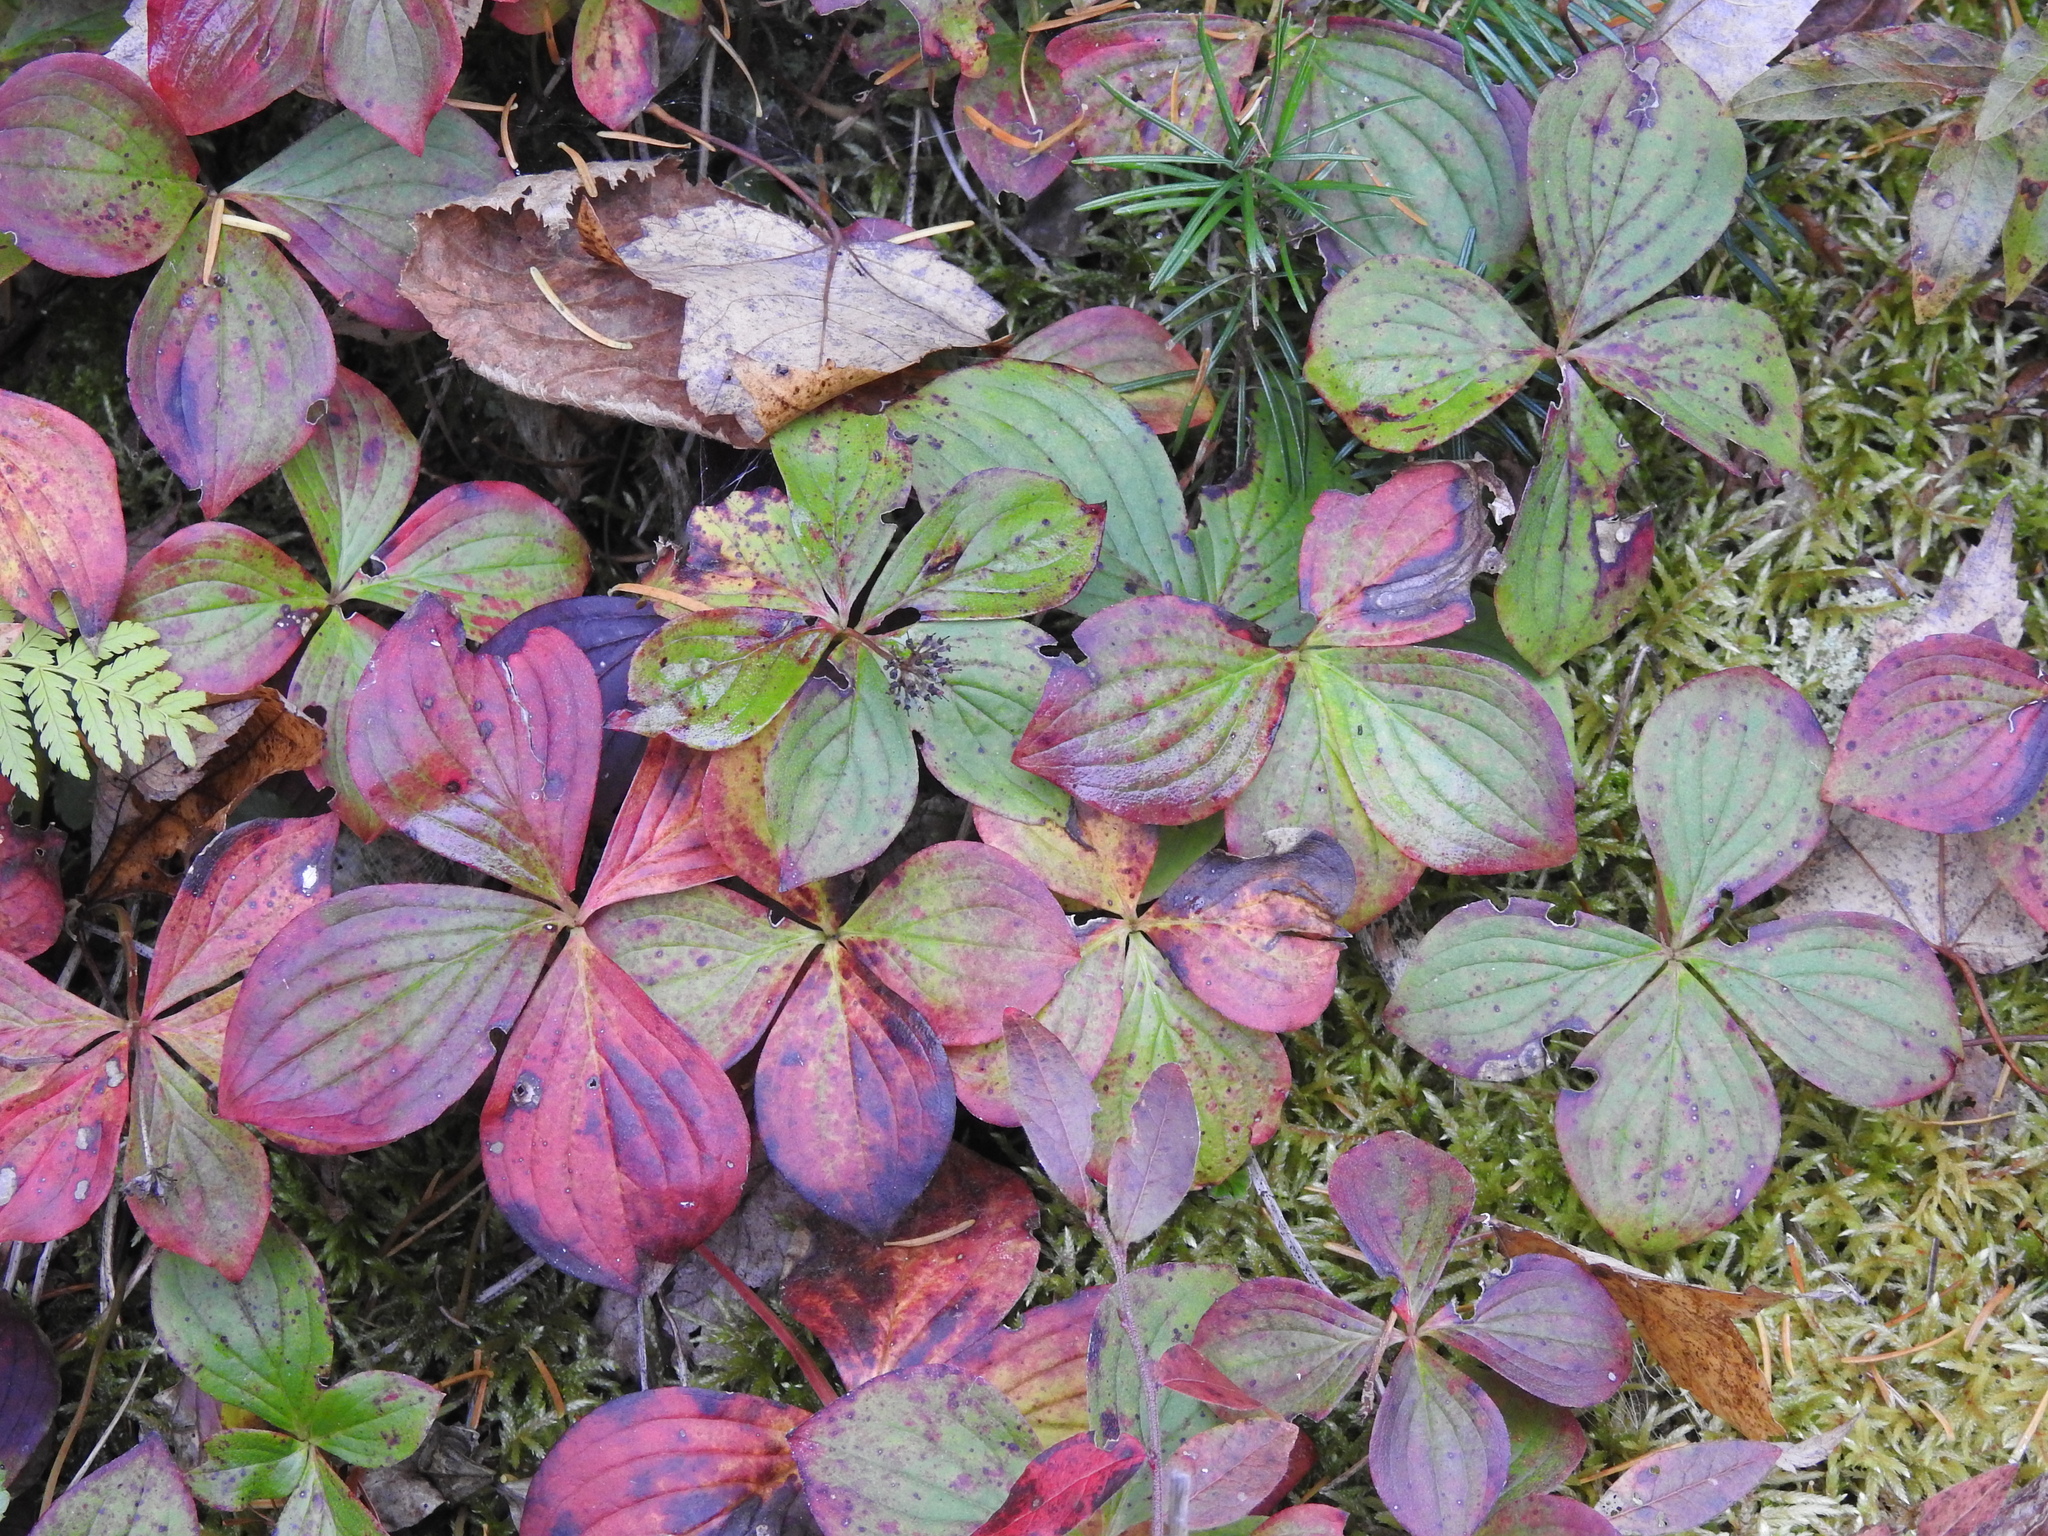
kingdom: Plantae
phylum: Tracheophyta
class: Magnoliopsida
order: Cornales
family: Cornaceae
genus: Cornus
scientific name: Cornus canadensis
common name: Creeping dogwood
